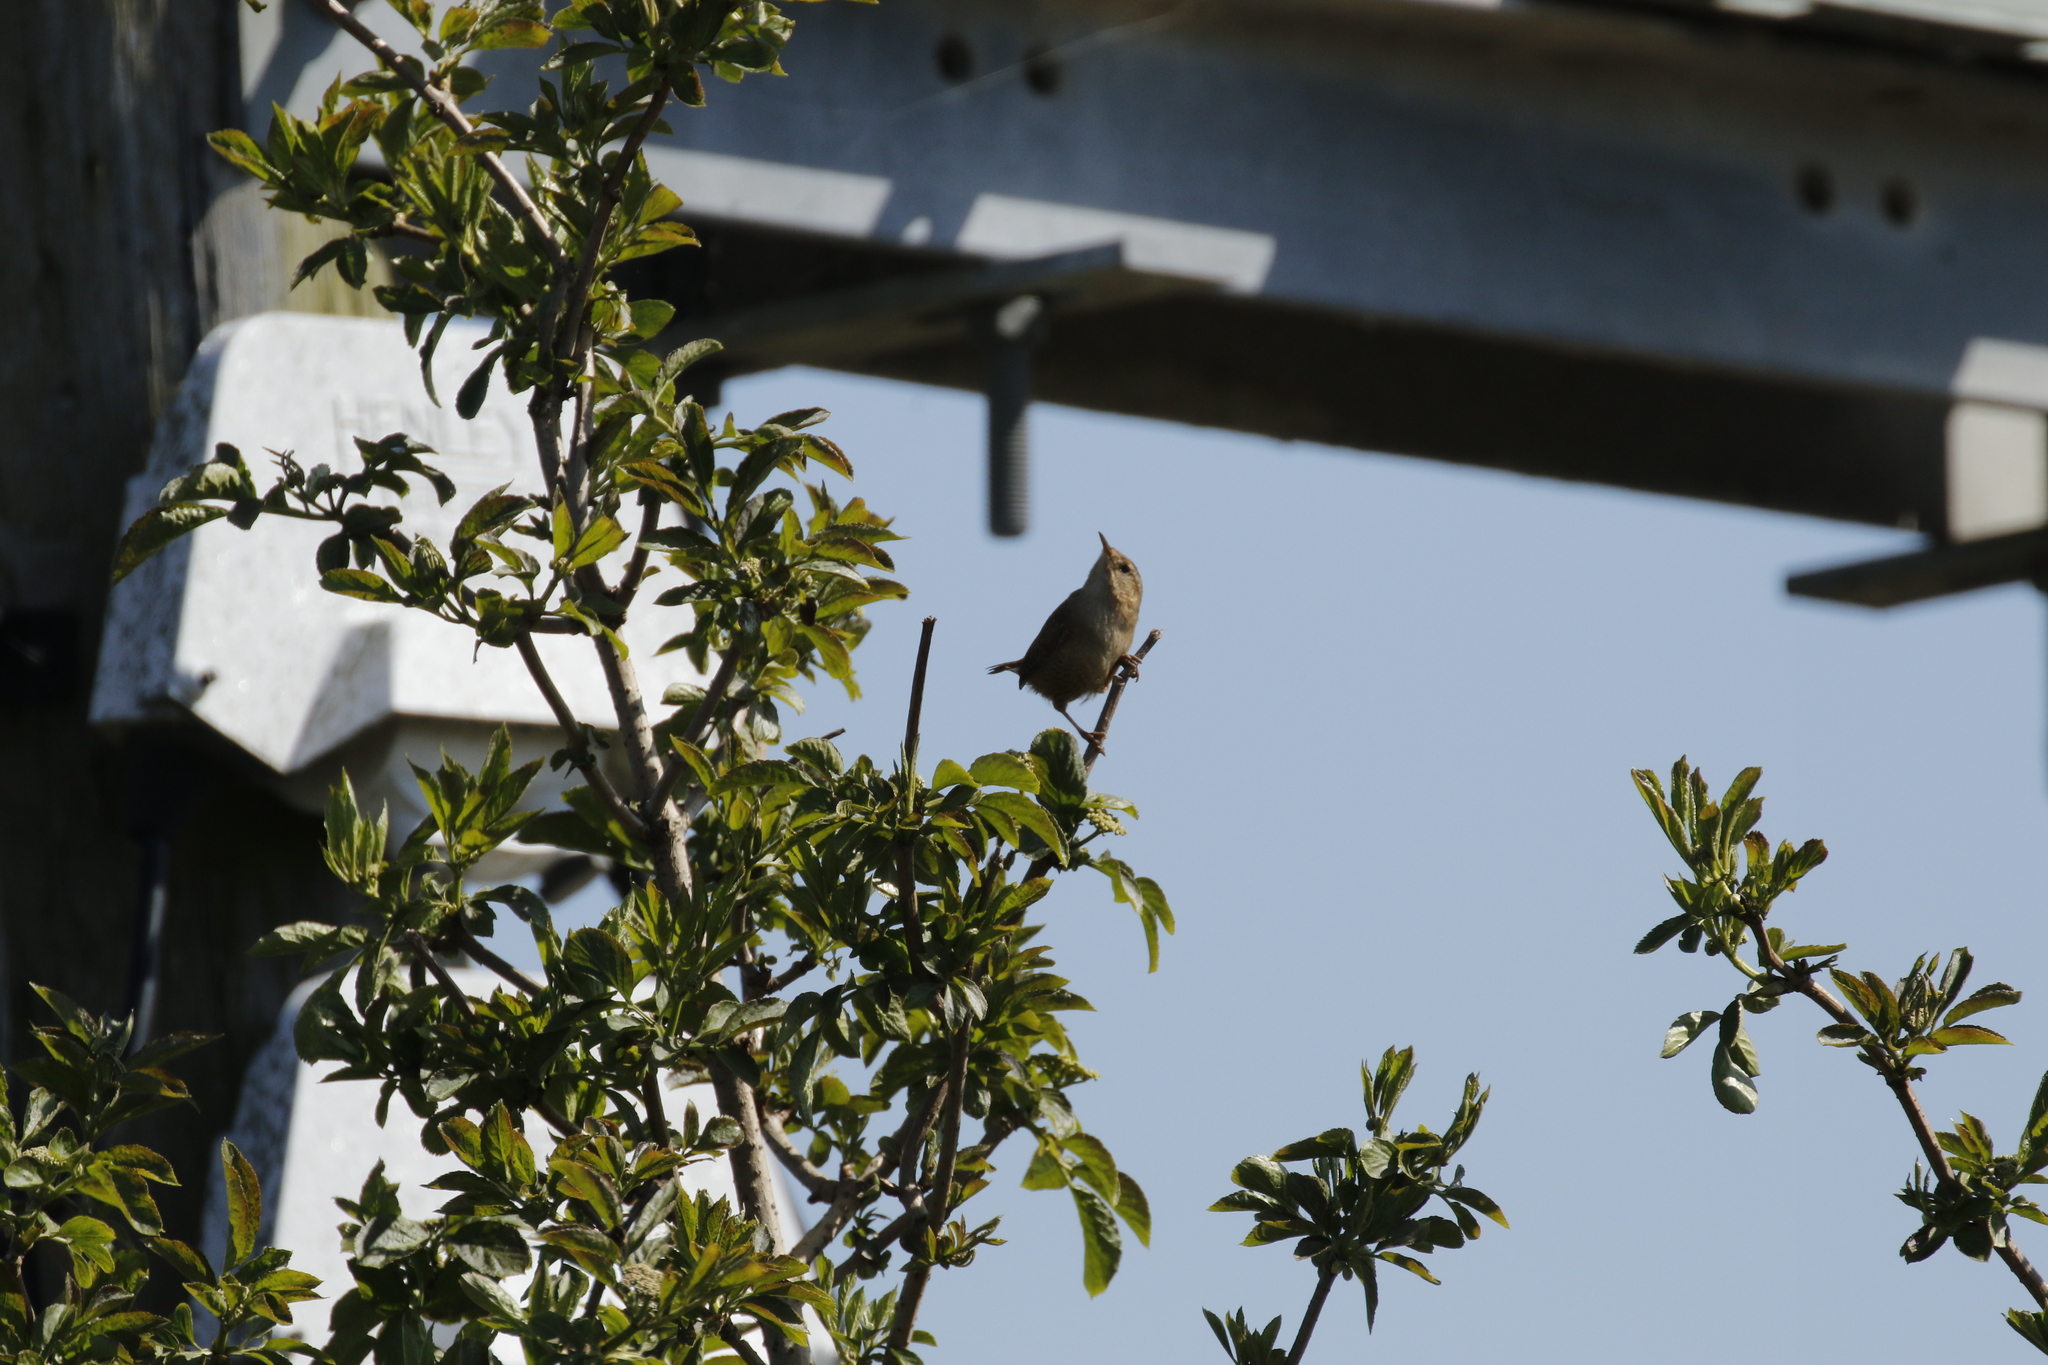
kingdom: Animalia
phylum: Chordata
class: Aves
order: Passeriformes
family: Troglodytidae
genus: Troglodytes
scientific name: Troglodytes troglodytes
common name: Eurasian wren
